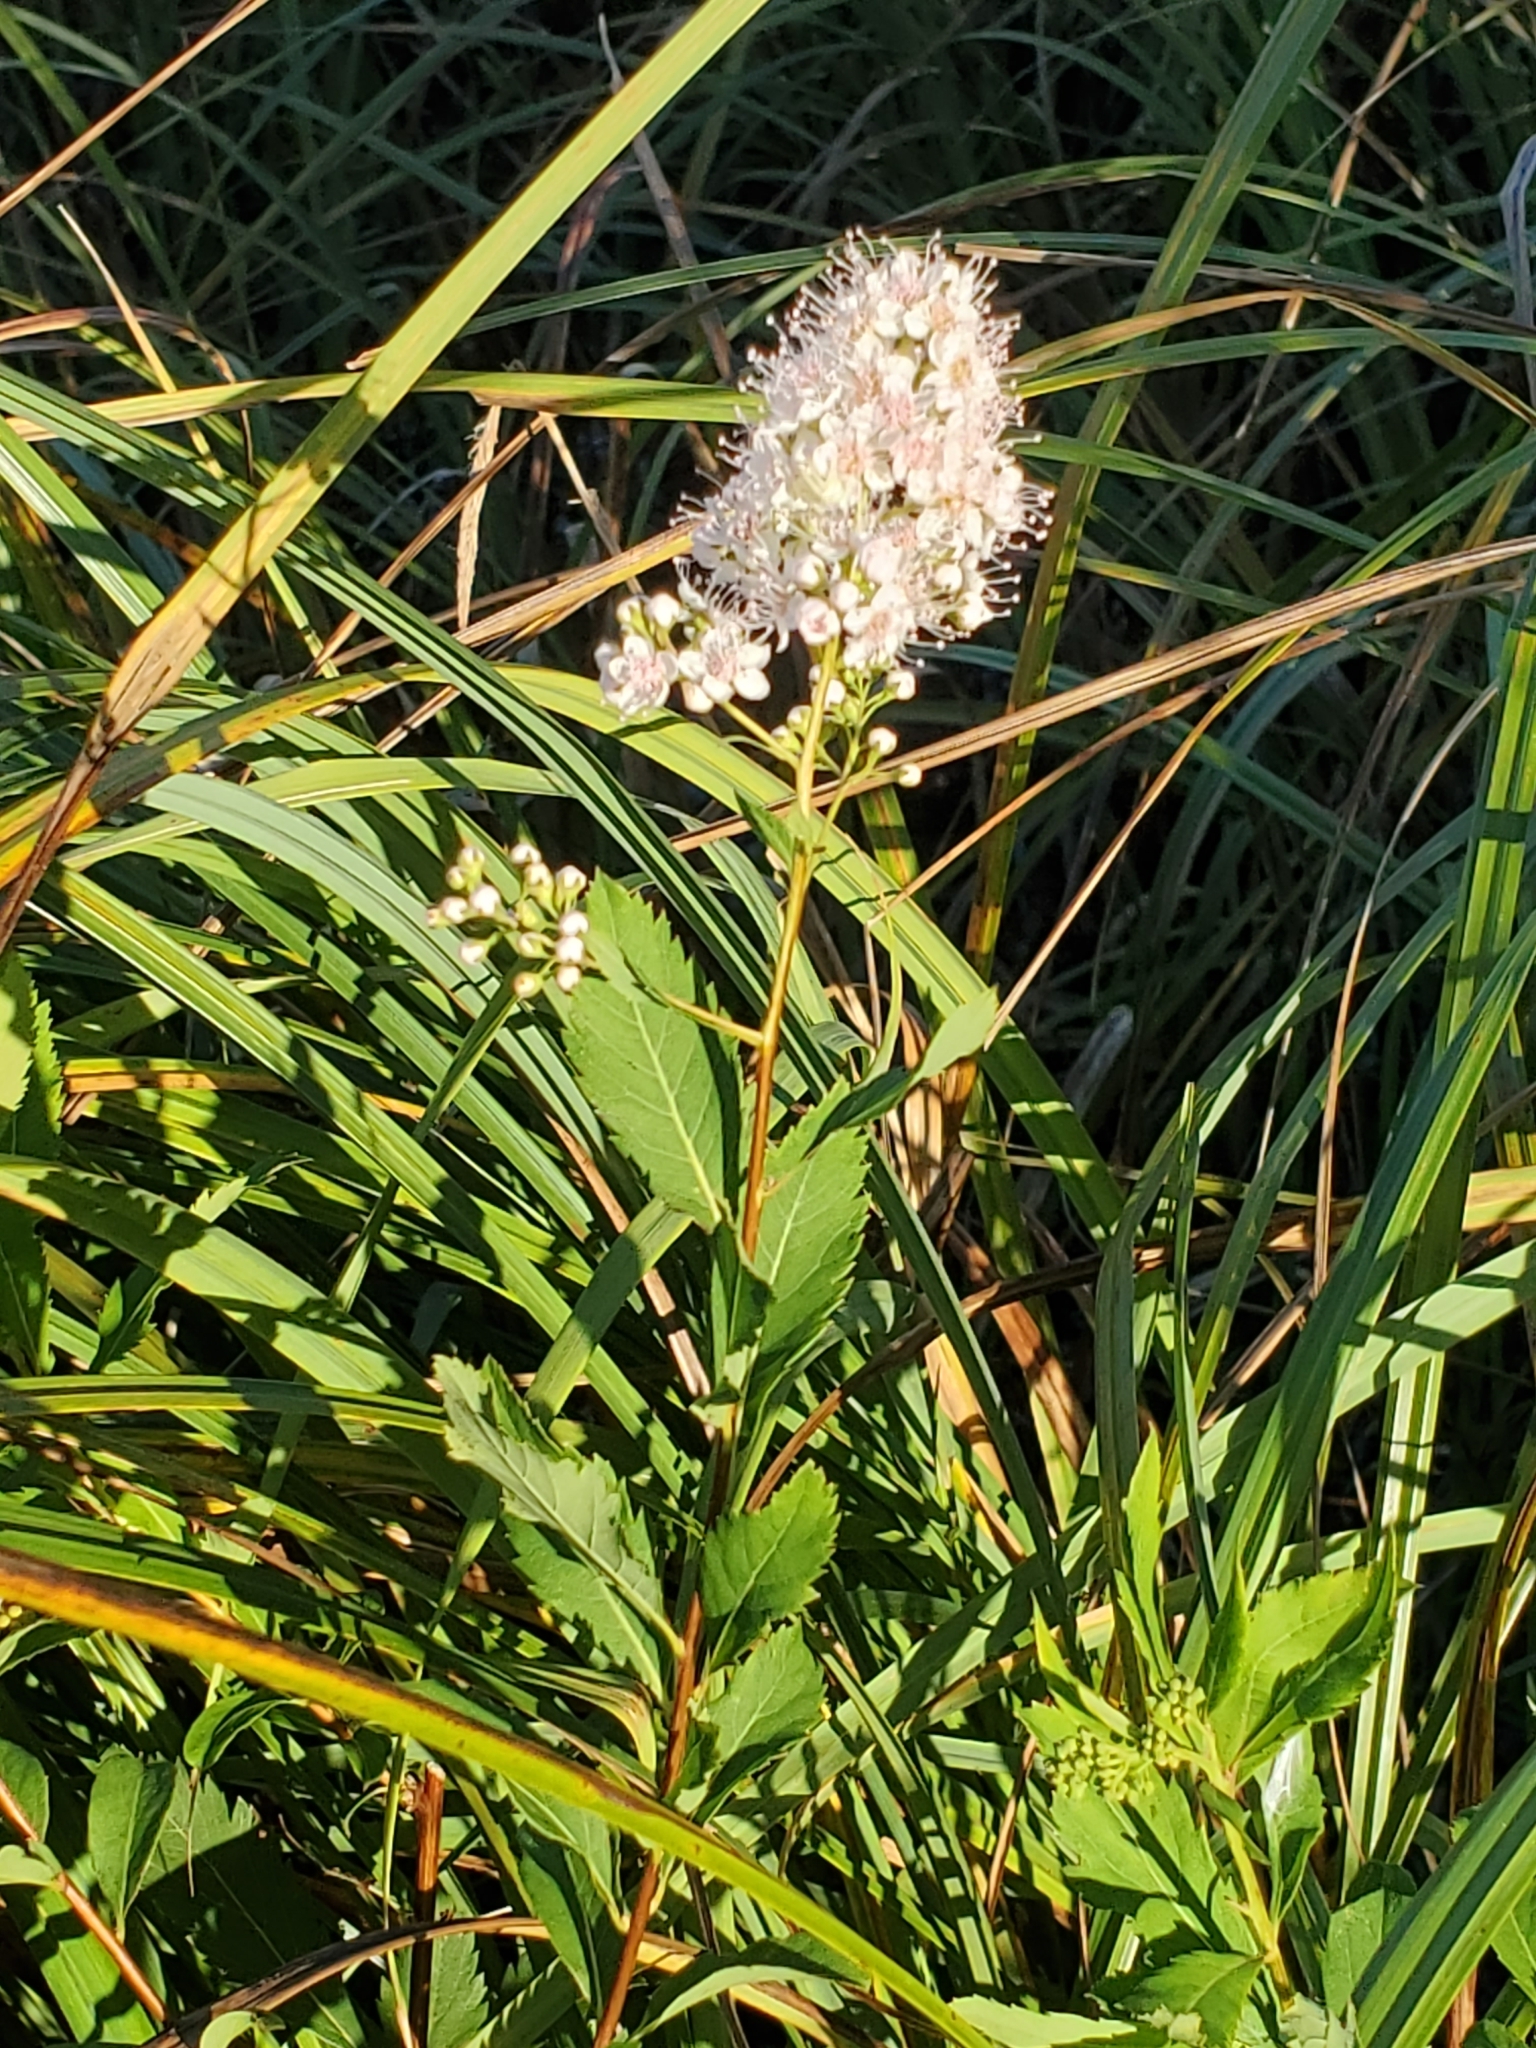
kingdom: Plantae
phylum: Tracheophyta
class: Magnoliopsida
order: Rosales
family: Rosaceae
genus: Spiraea
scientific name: Spiraea alba
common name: Pale bridewort
